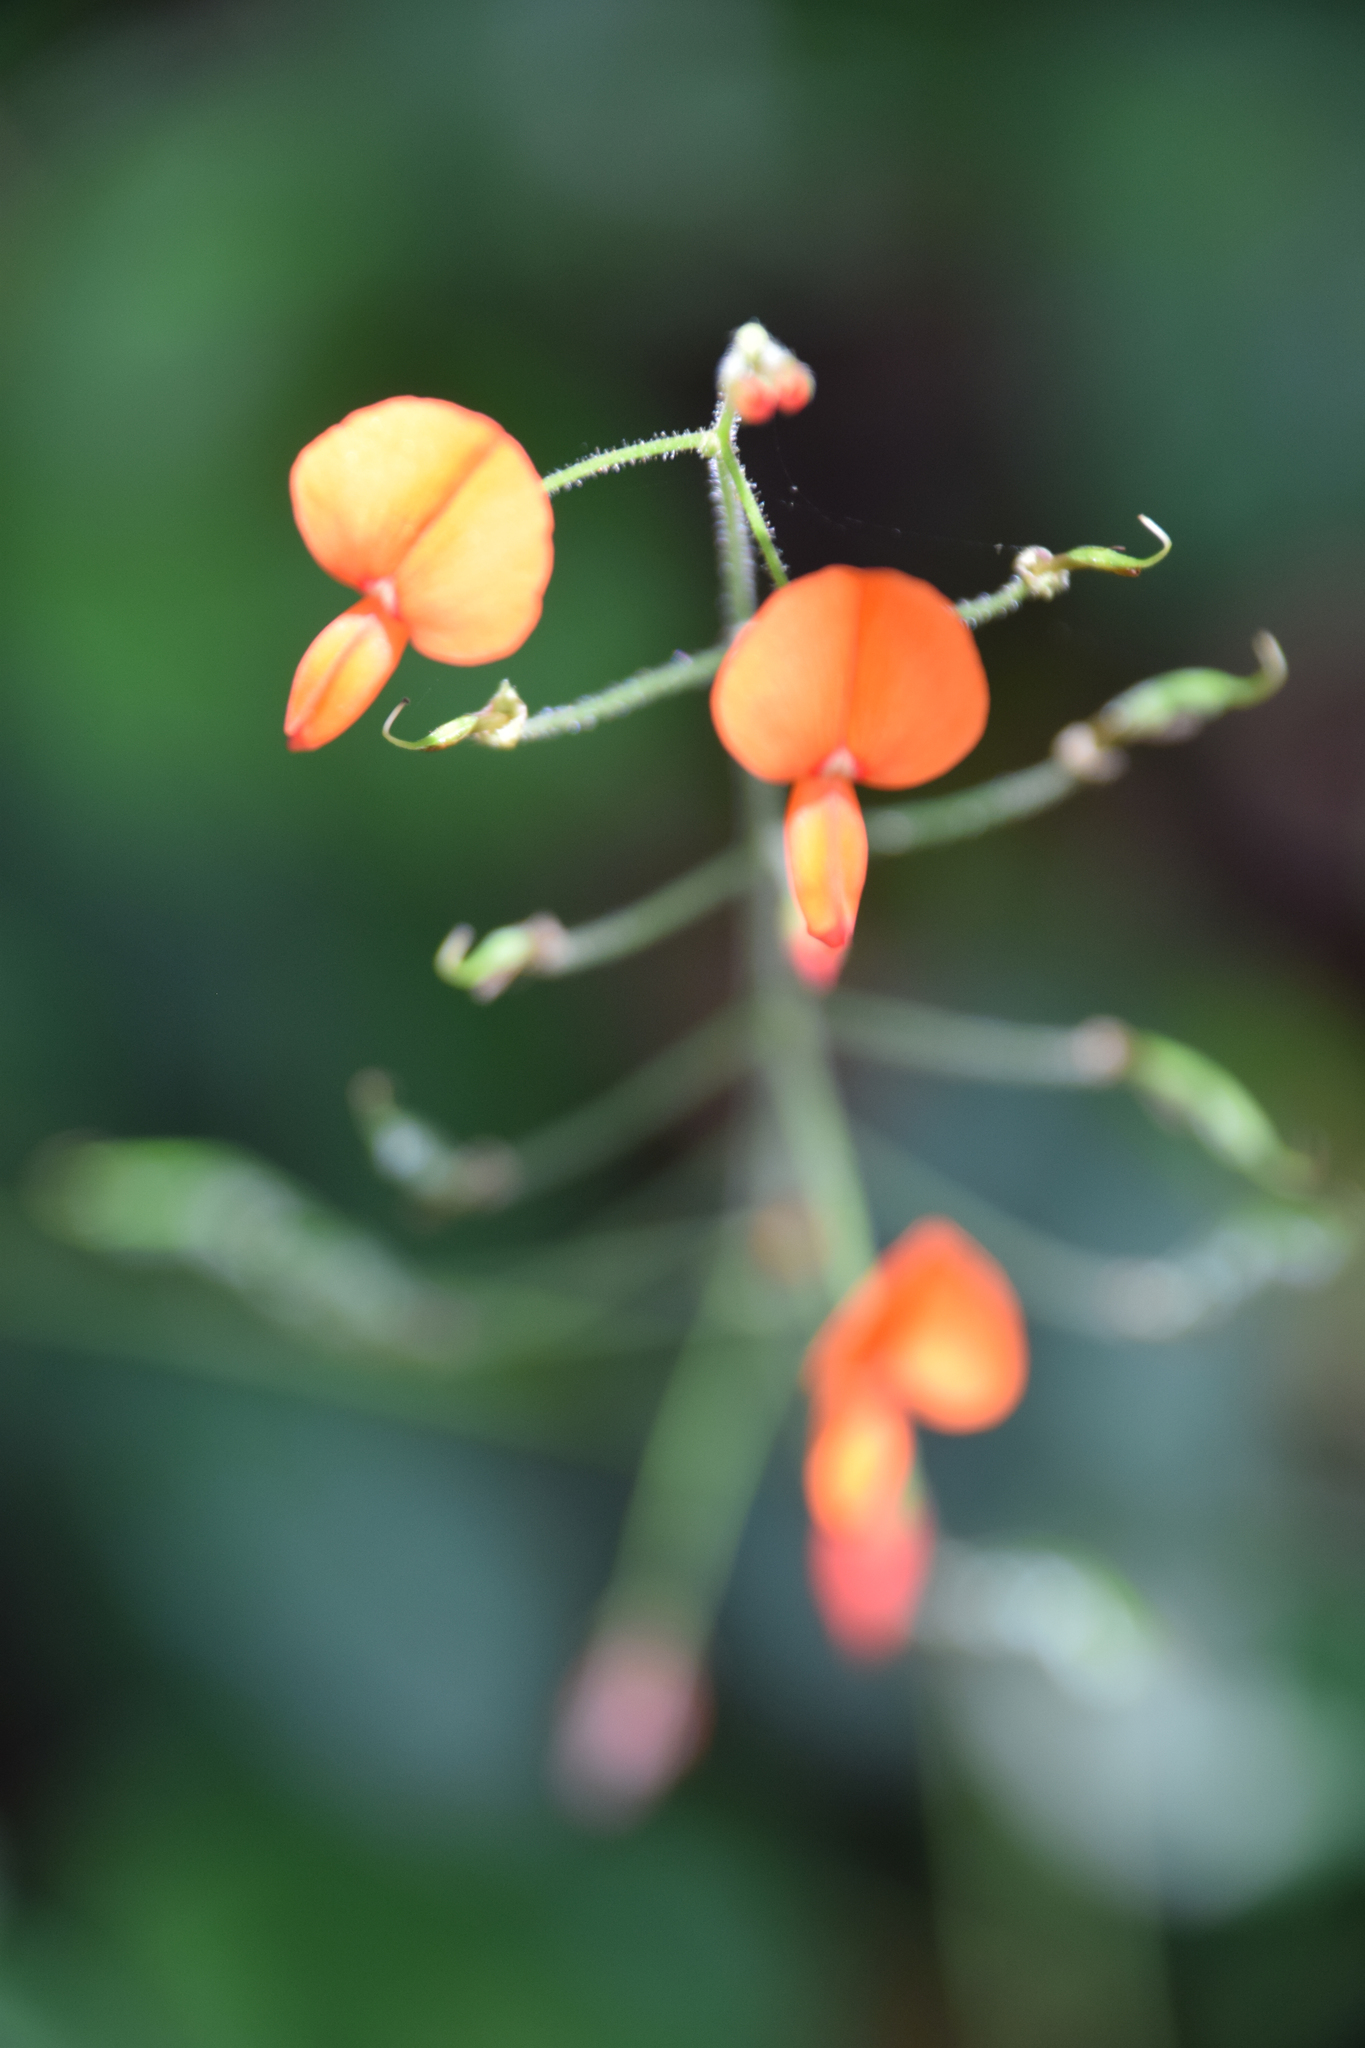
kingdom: Plantae
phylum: Tracheophyta
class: Magnoliopsida
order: Fabales
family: Fabaceae
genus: Hylodesmum
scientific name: Hylodesmum repandum
